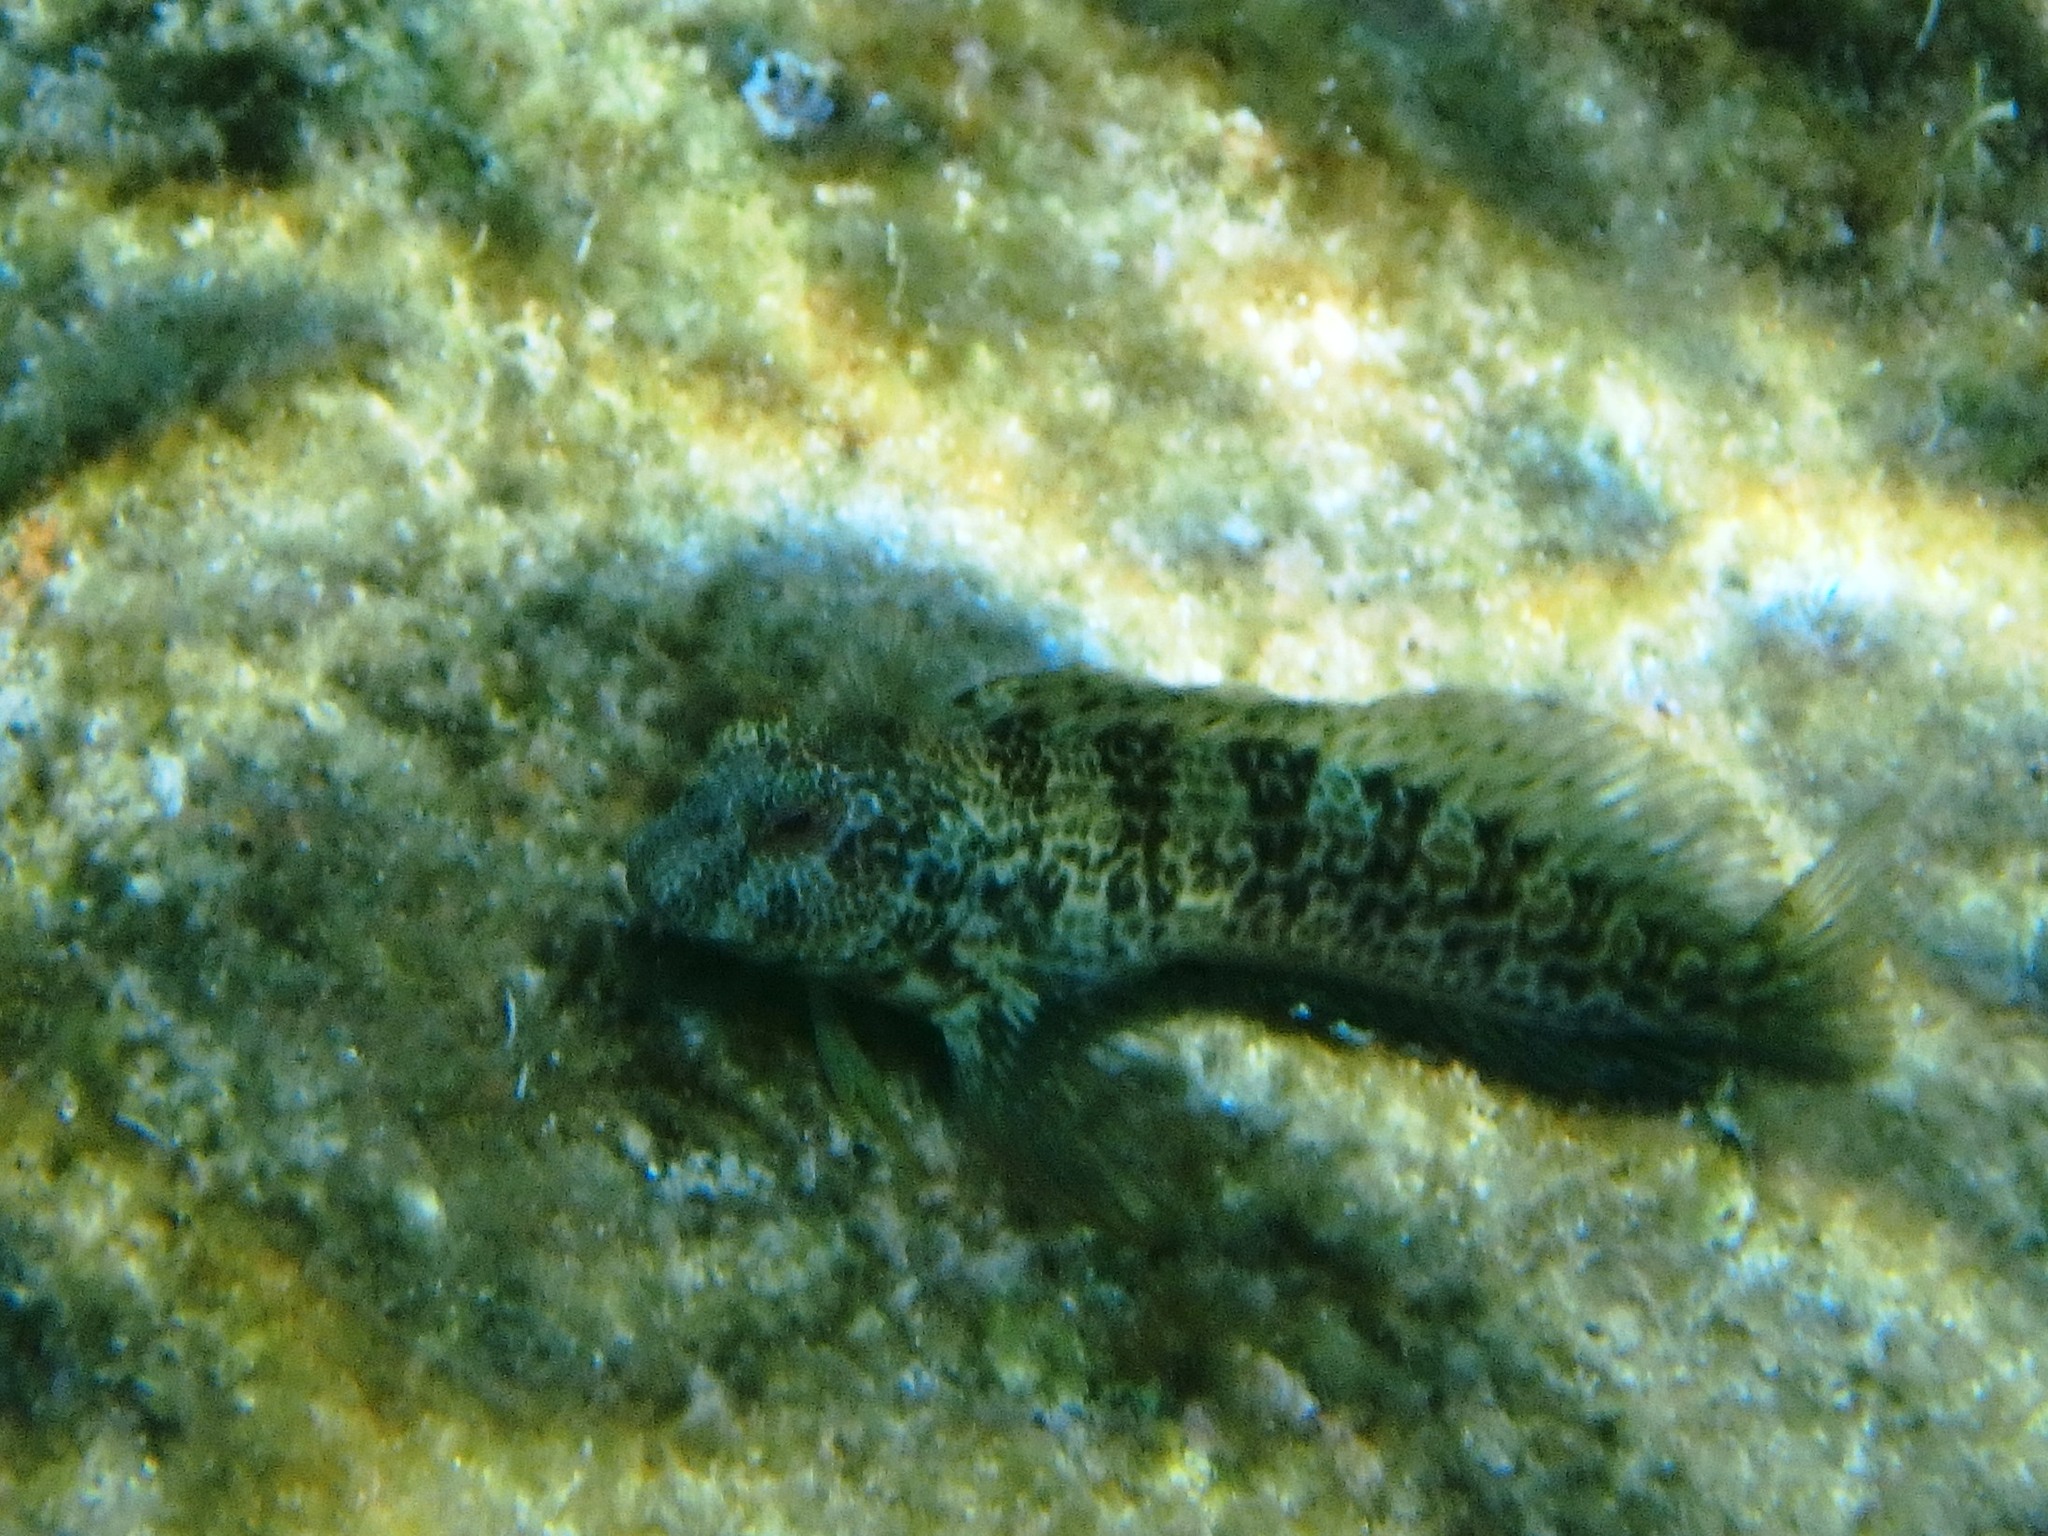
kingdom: Animalia
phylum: Chordata
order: Perciformes
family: Blenniidae
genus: Parablennius
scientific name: Parablennius pilicornis
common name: Ringneck blenny
